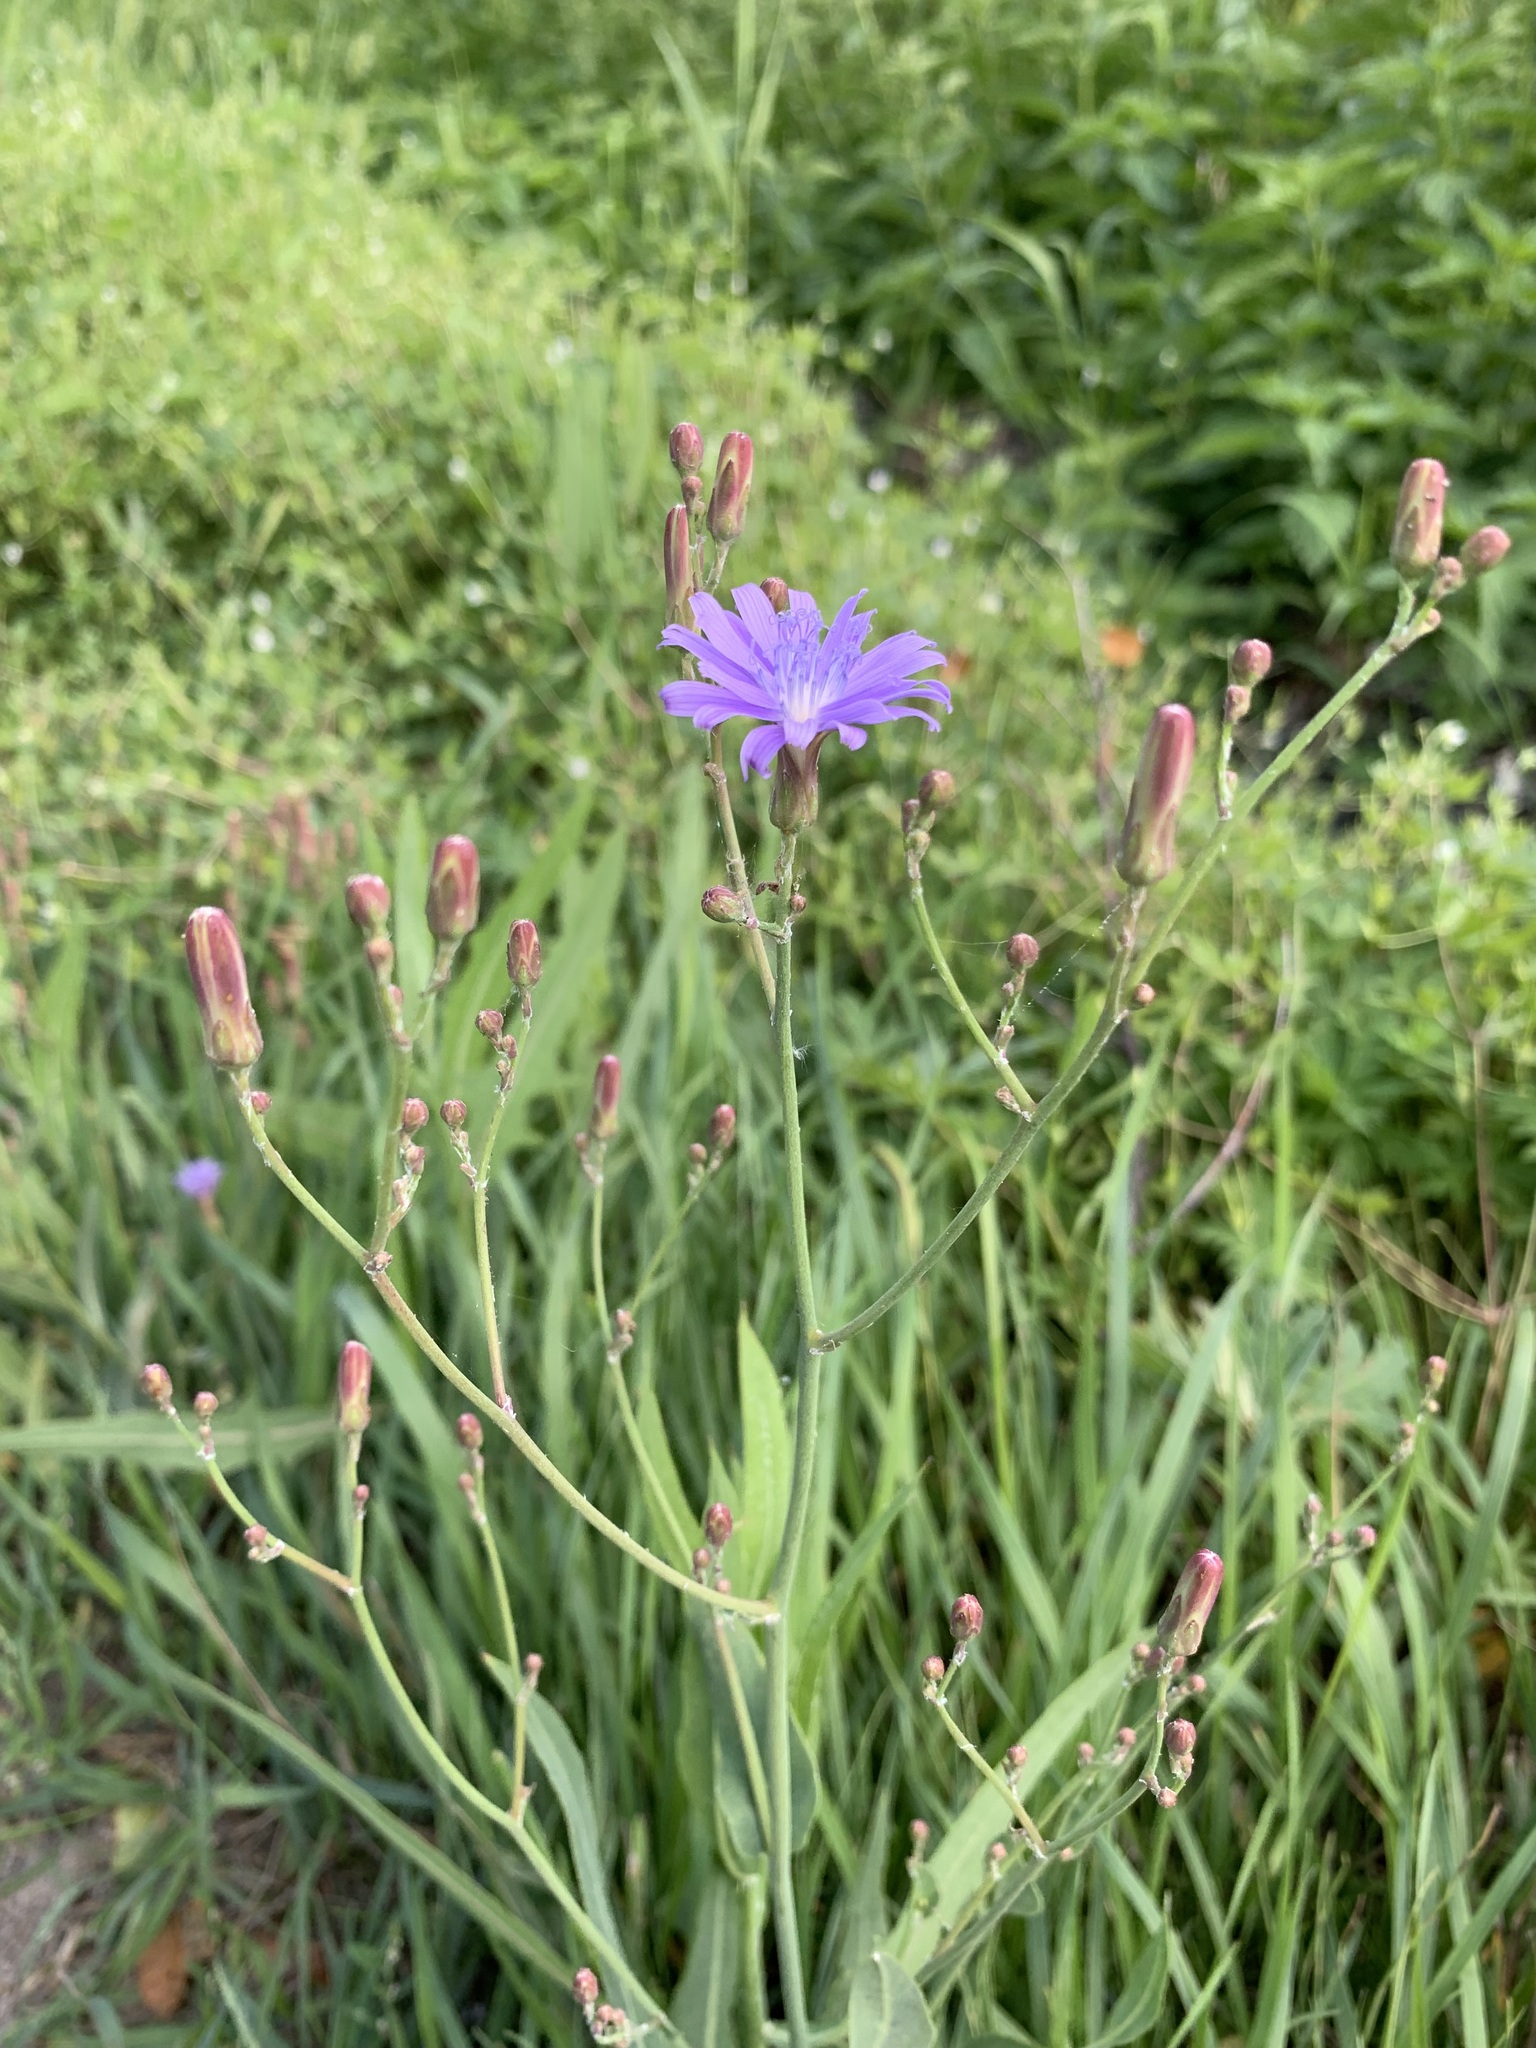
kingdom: Plantae
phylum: Tracheophyta
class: Magnoliopsida
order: Asterales
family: Asteraceae
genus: Lactuca
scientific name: Lactuca tatarica
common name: Blue lettuce
